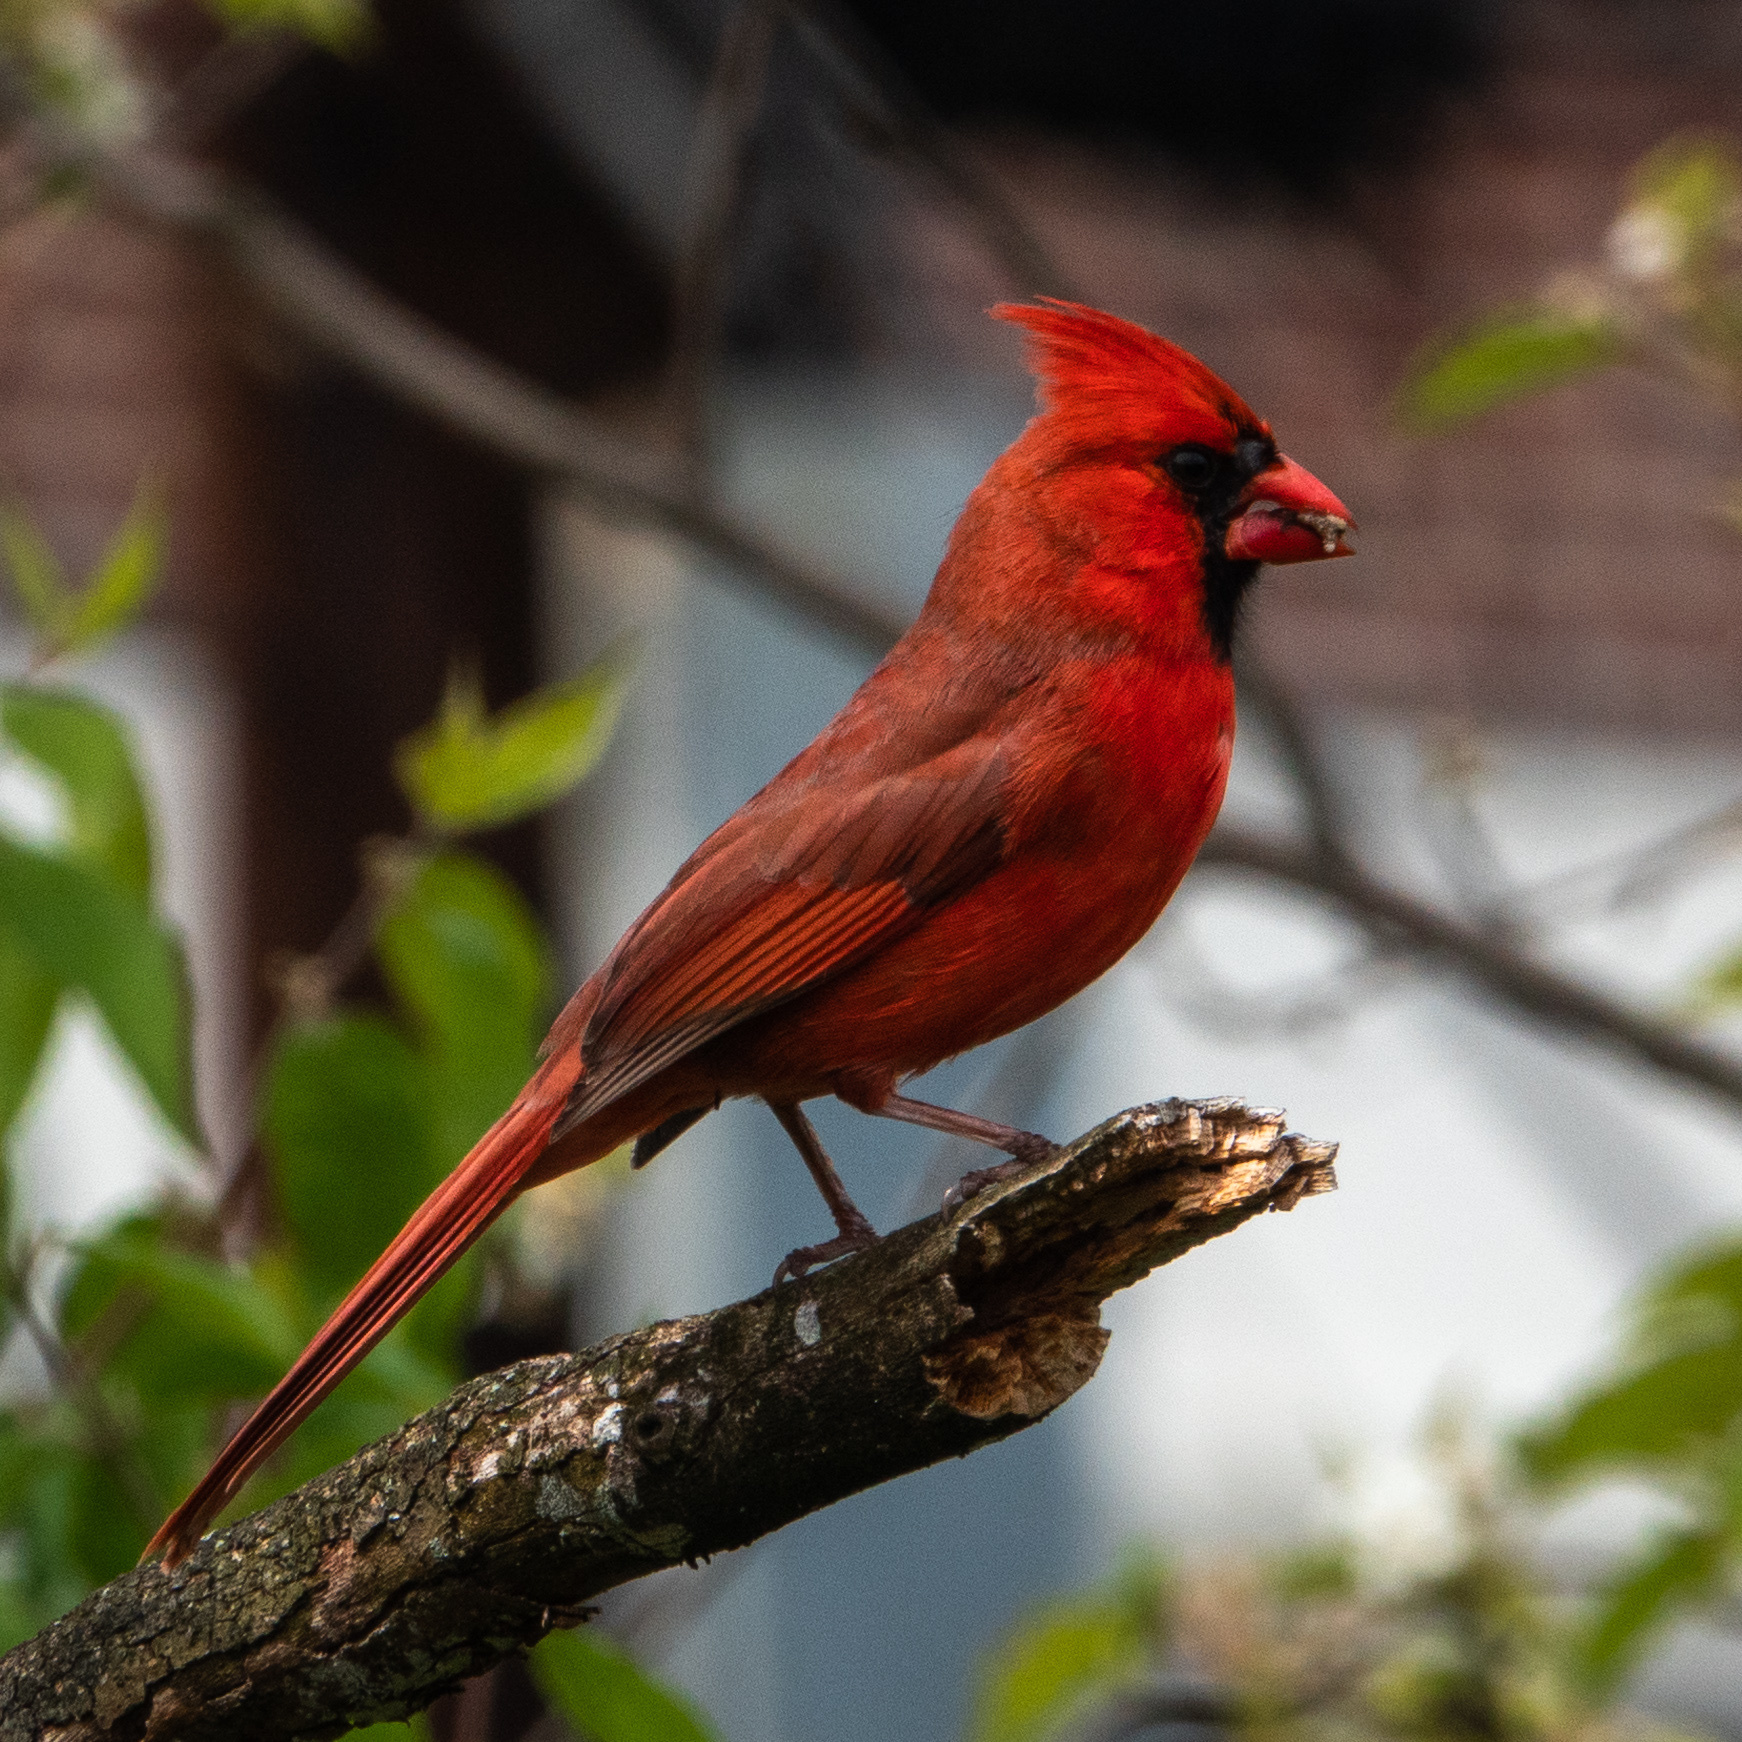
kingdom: Animalia
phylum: Chordata
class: Aves
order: Passeriformes
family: Cardinalidae
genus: Cardinalis
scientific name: Cardinalis cardinalis
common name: Northern cardinal
